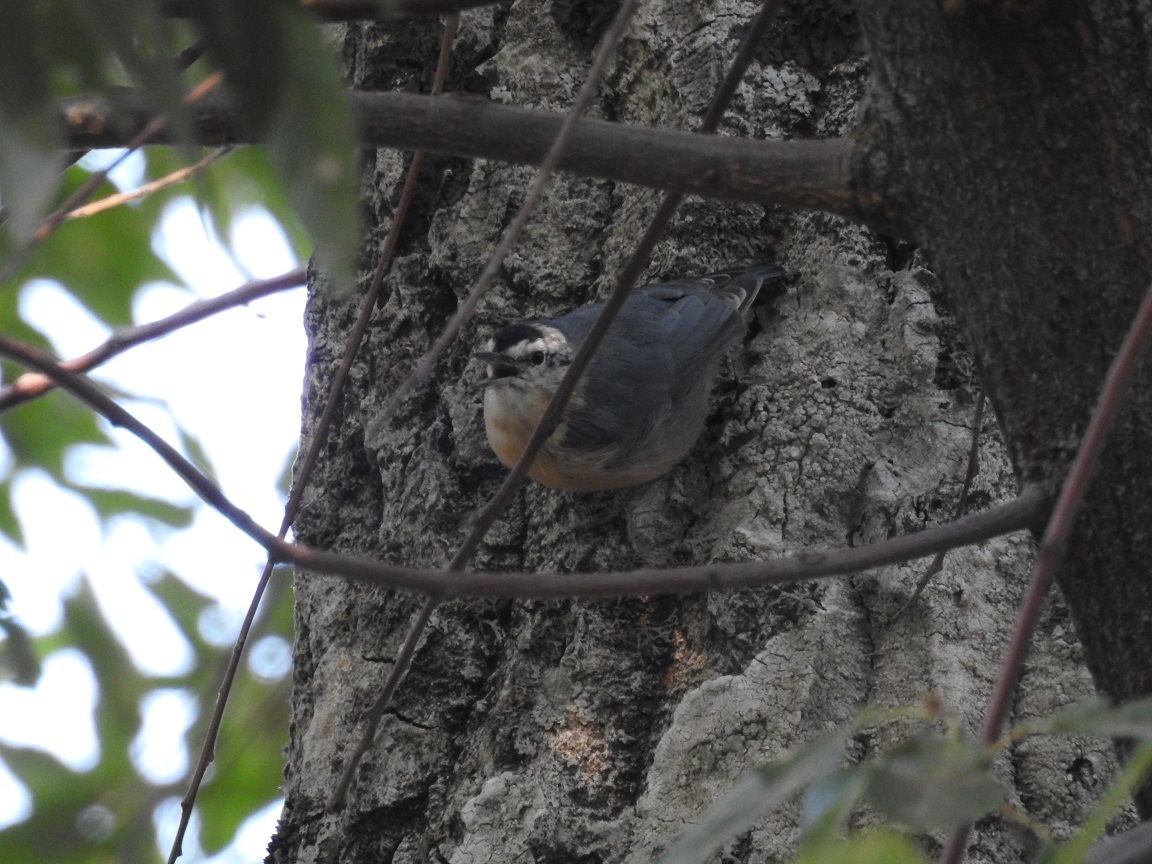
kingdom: Animalia
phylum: Chordata
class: Aves
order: Passeriformes
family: Sittidae
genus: Sitta
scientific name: Sitta ledanti
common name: Algerian nuthatch
